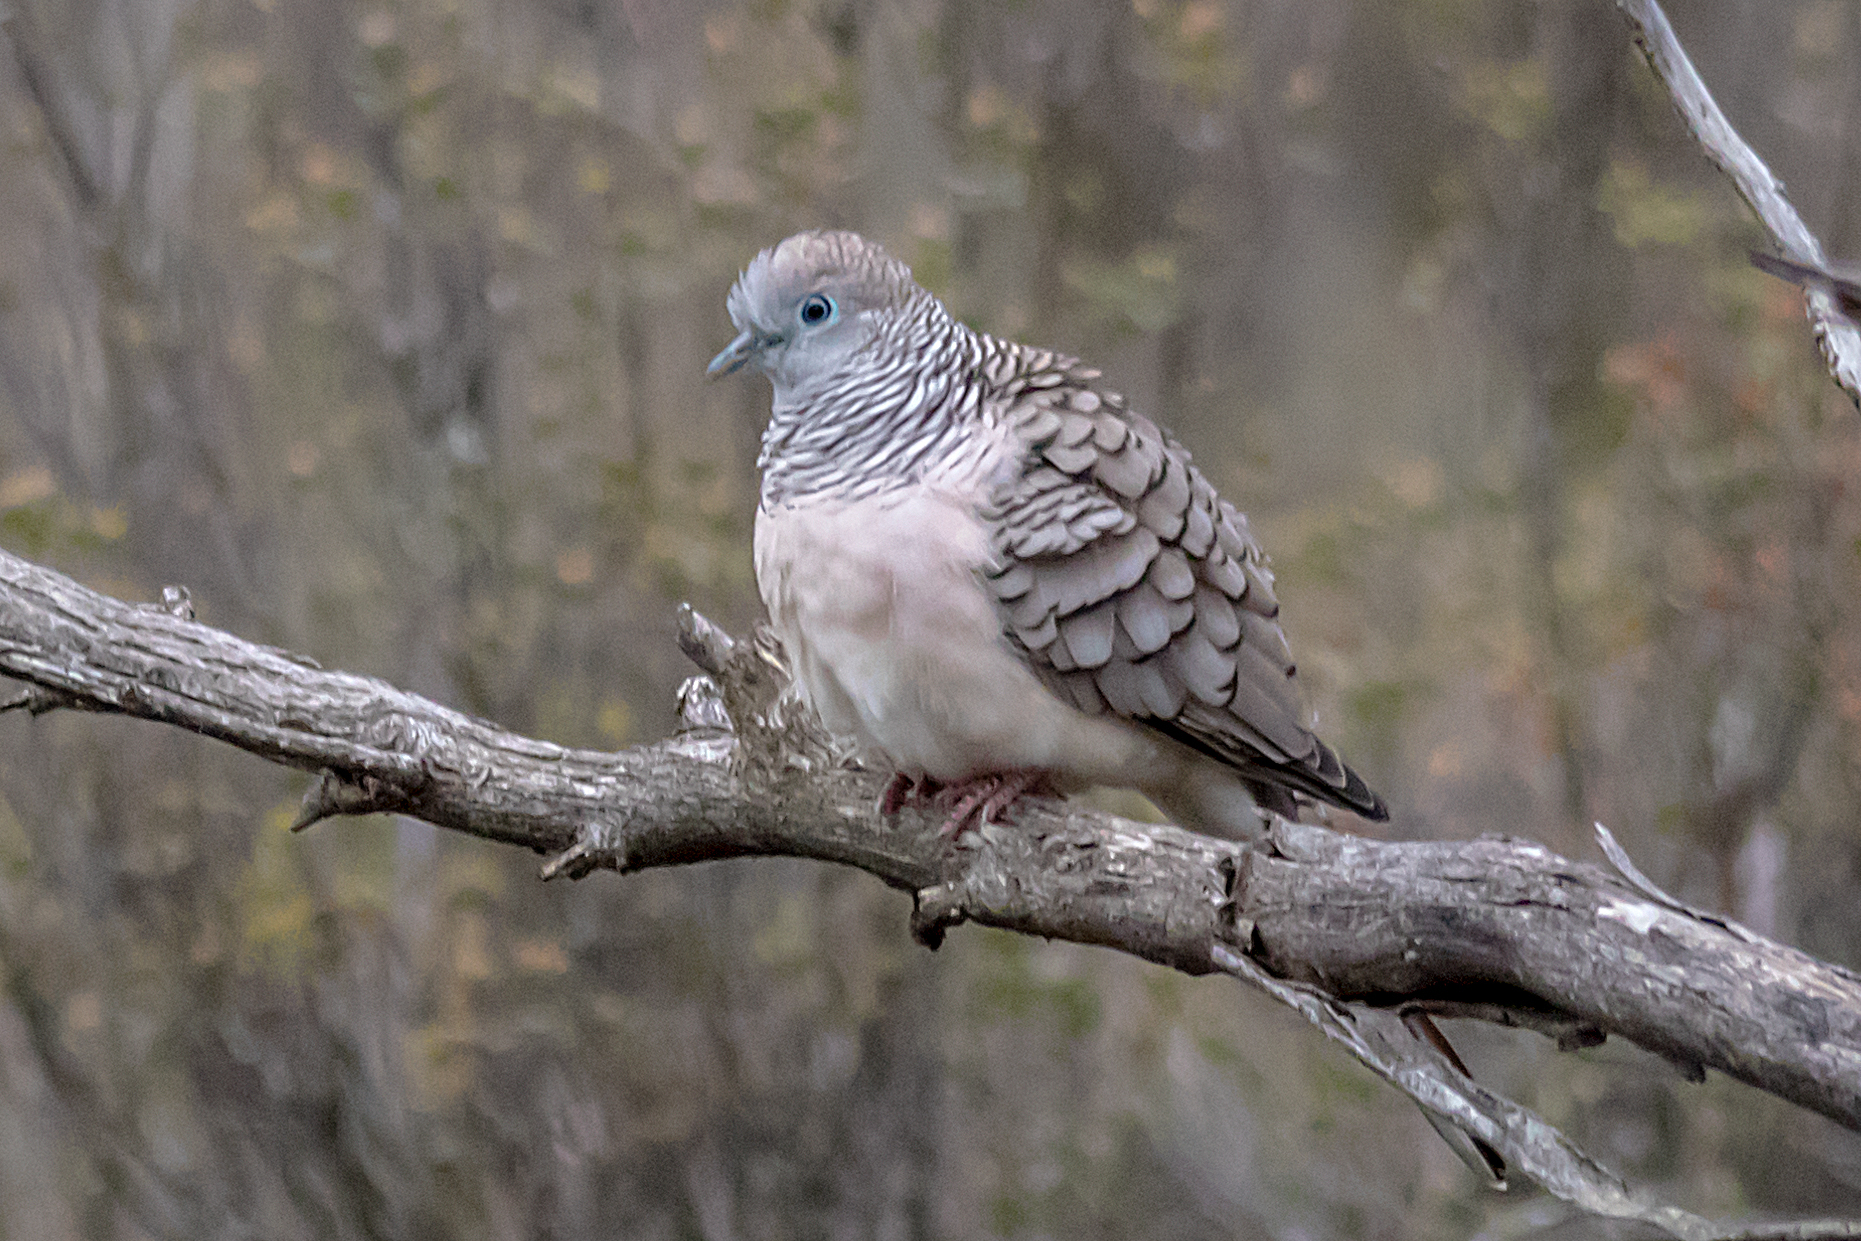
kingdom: Animalia
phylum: Chordata
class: Aves
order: Columbiformes
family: Columbidae
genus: Geopelia
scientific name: Geopelia placida
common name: Peaceful dove
